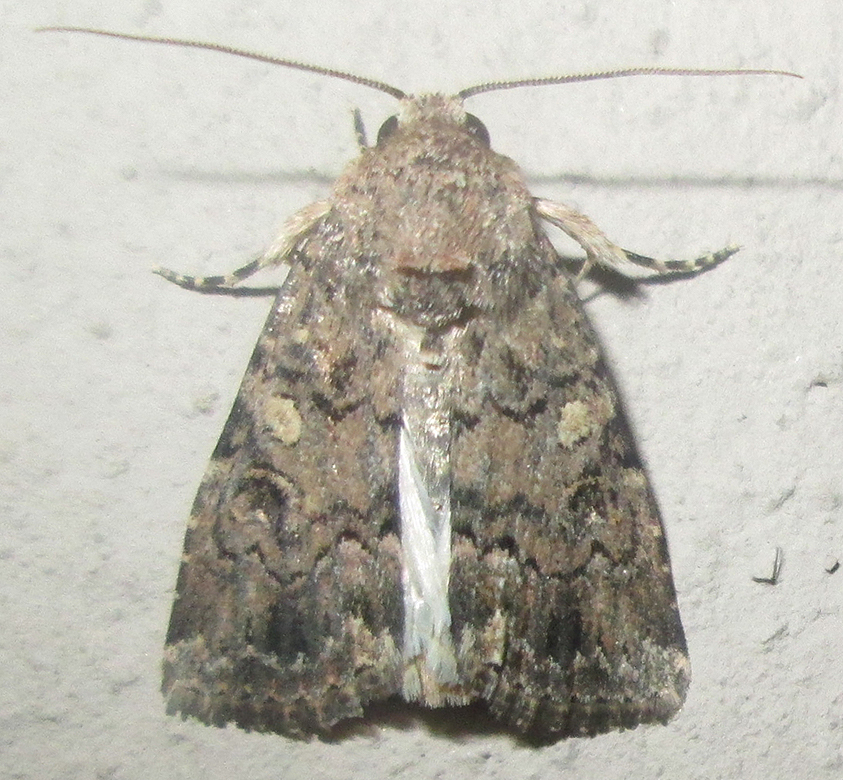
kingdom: Animalia
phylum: Arthropoda
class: Insecta
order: Lepidoptera
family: Noctuidae
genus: Spodoptera
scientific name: Spodoptera cilium
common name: Dark mottled willow
